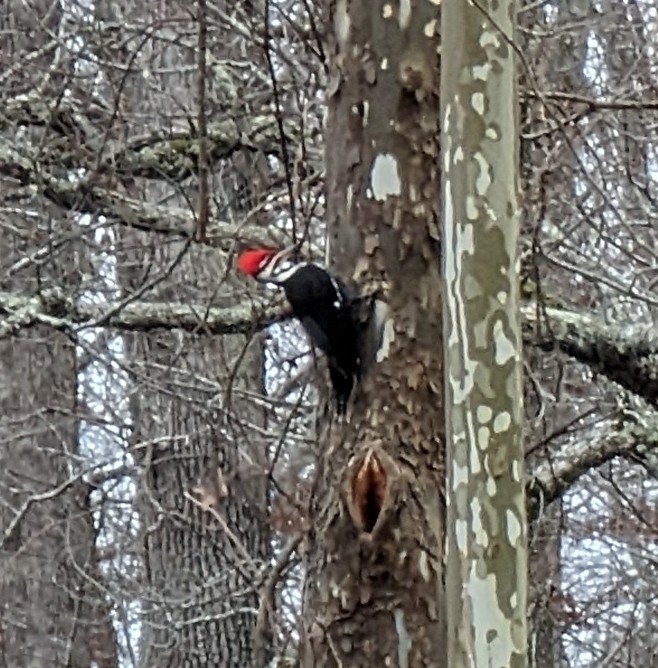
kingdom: Animalia
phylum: Chordata
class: Aves
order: Piciformes
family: Picidae
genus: Dryocopus
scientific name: Dryocopus pileatus
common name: Pileated woodpecker
